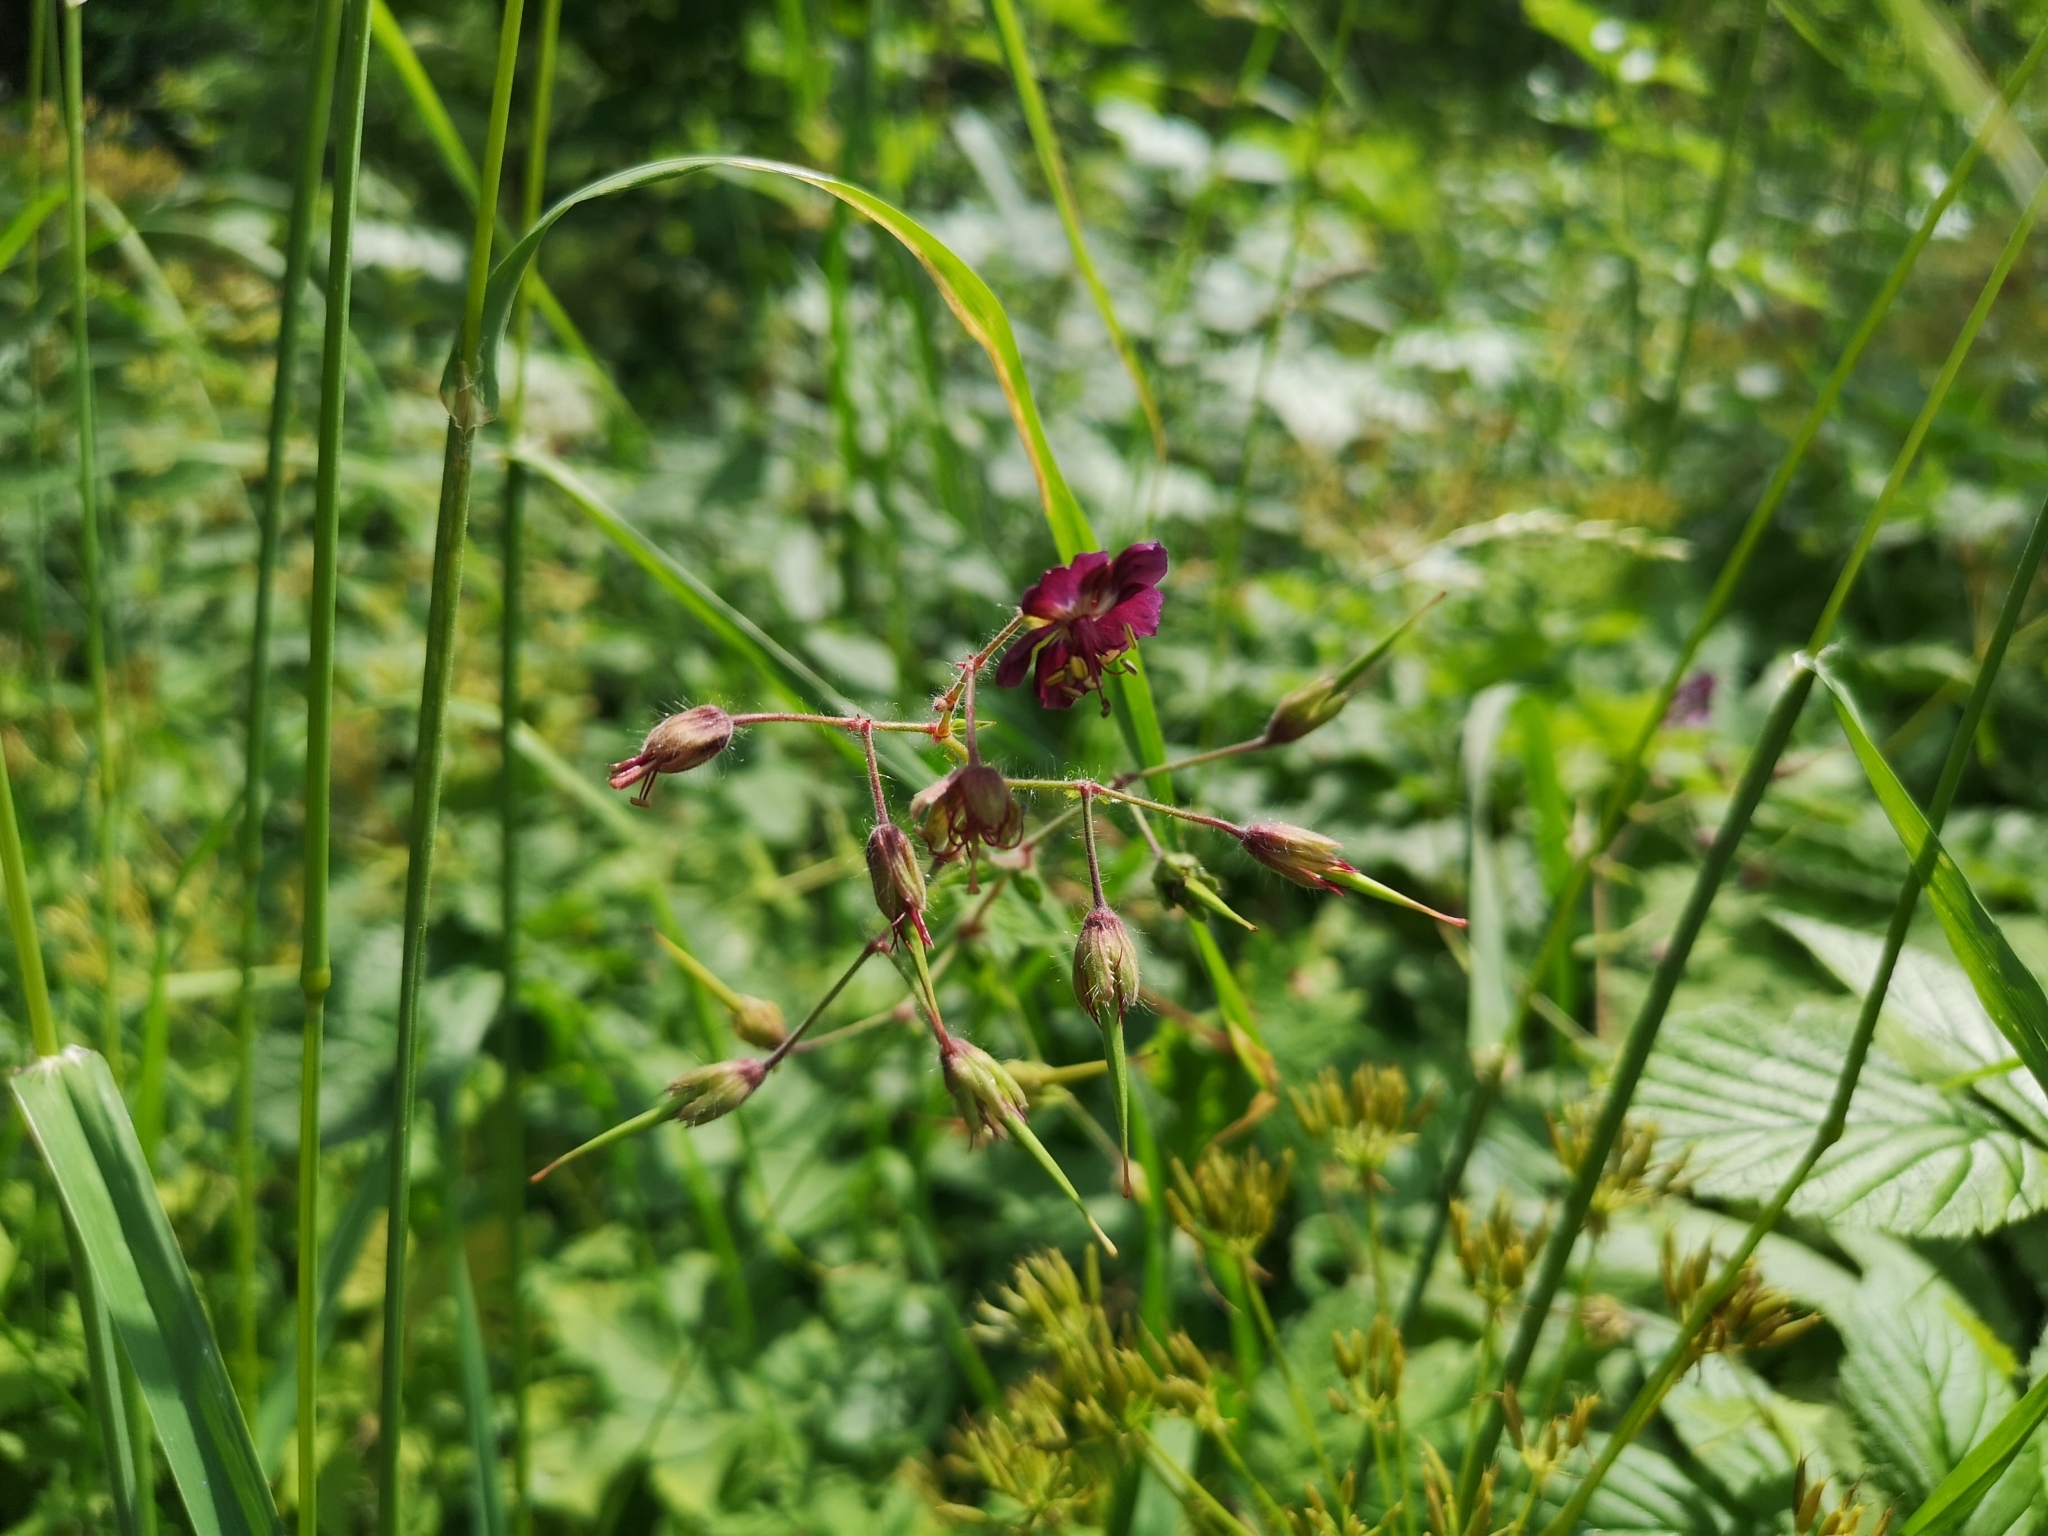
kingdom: Plantae
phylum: Tracheophyta
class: Magnoliopsida
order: Geraniales
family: Geraniaceae
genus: Geranium
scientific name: Geranium phaeum
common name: Dusky crane's-bill
